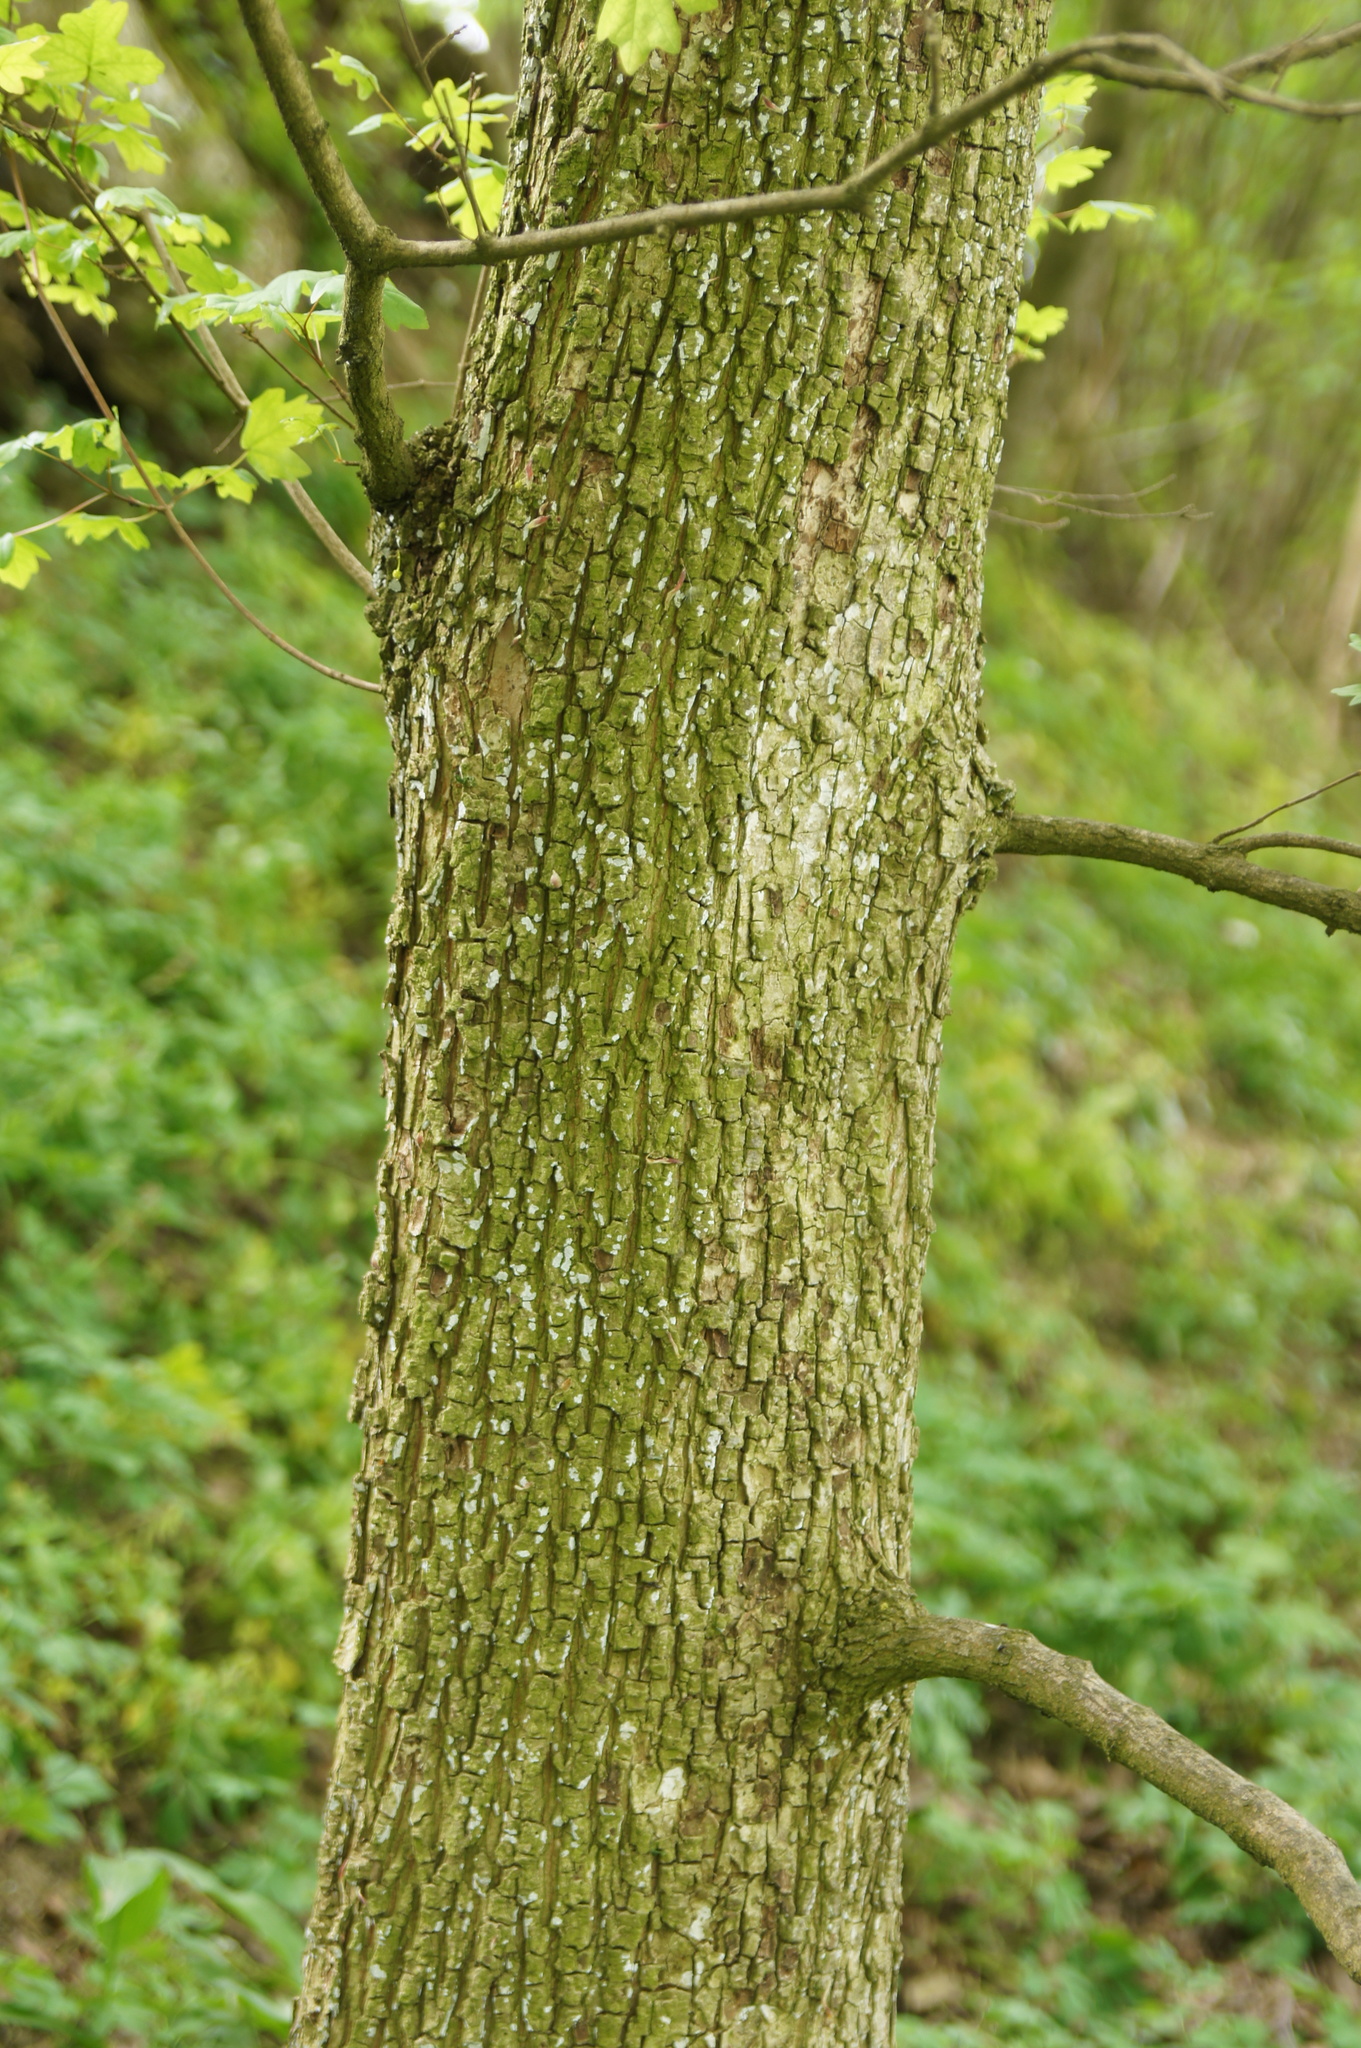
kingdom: Plantae
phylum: Tracheophyta
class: Magnoliopsida
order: Sapindales
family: Sapindaceae
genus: Acer
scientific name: Acer campestre
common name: Field maple
